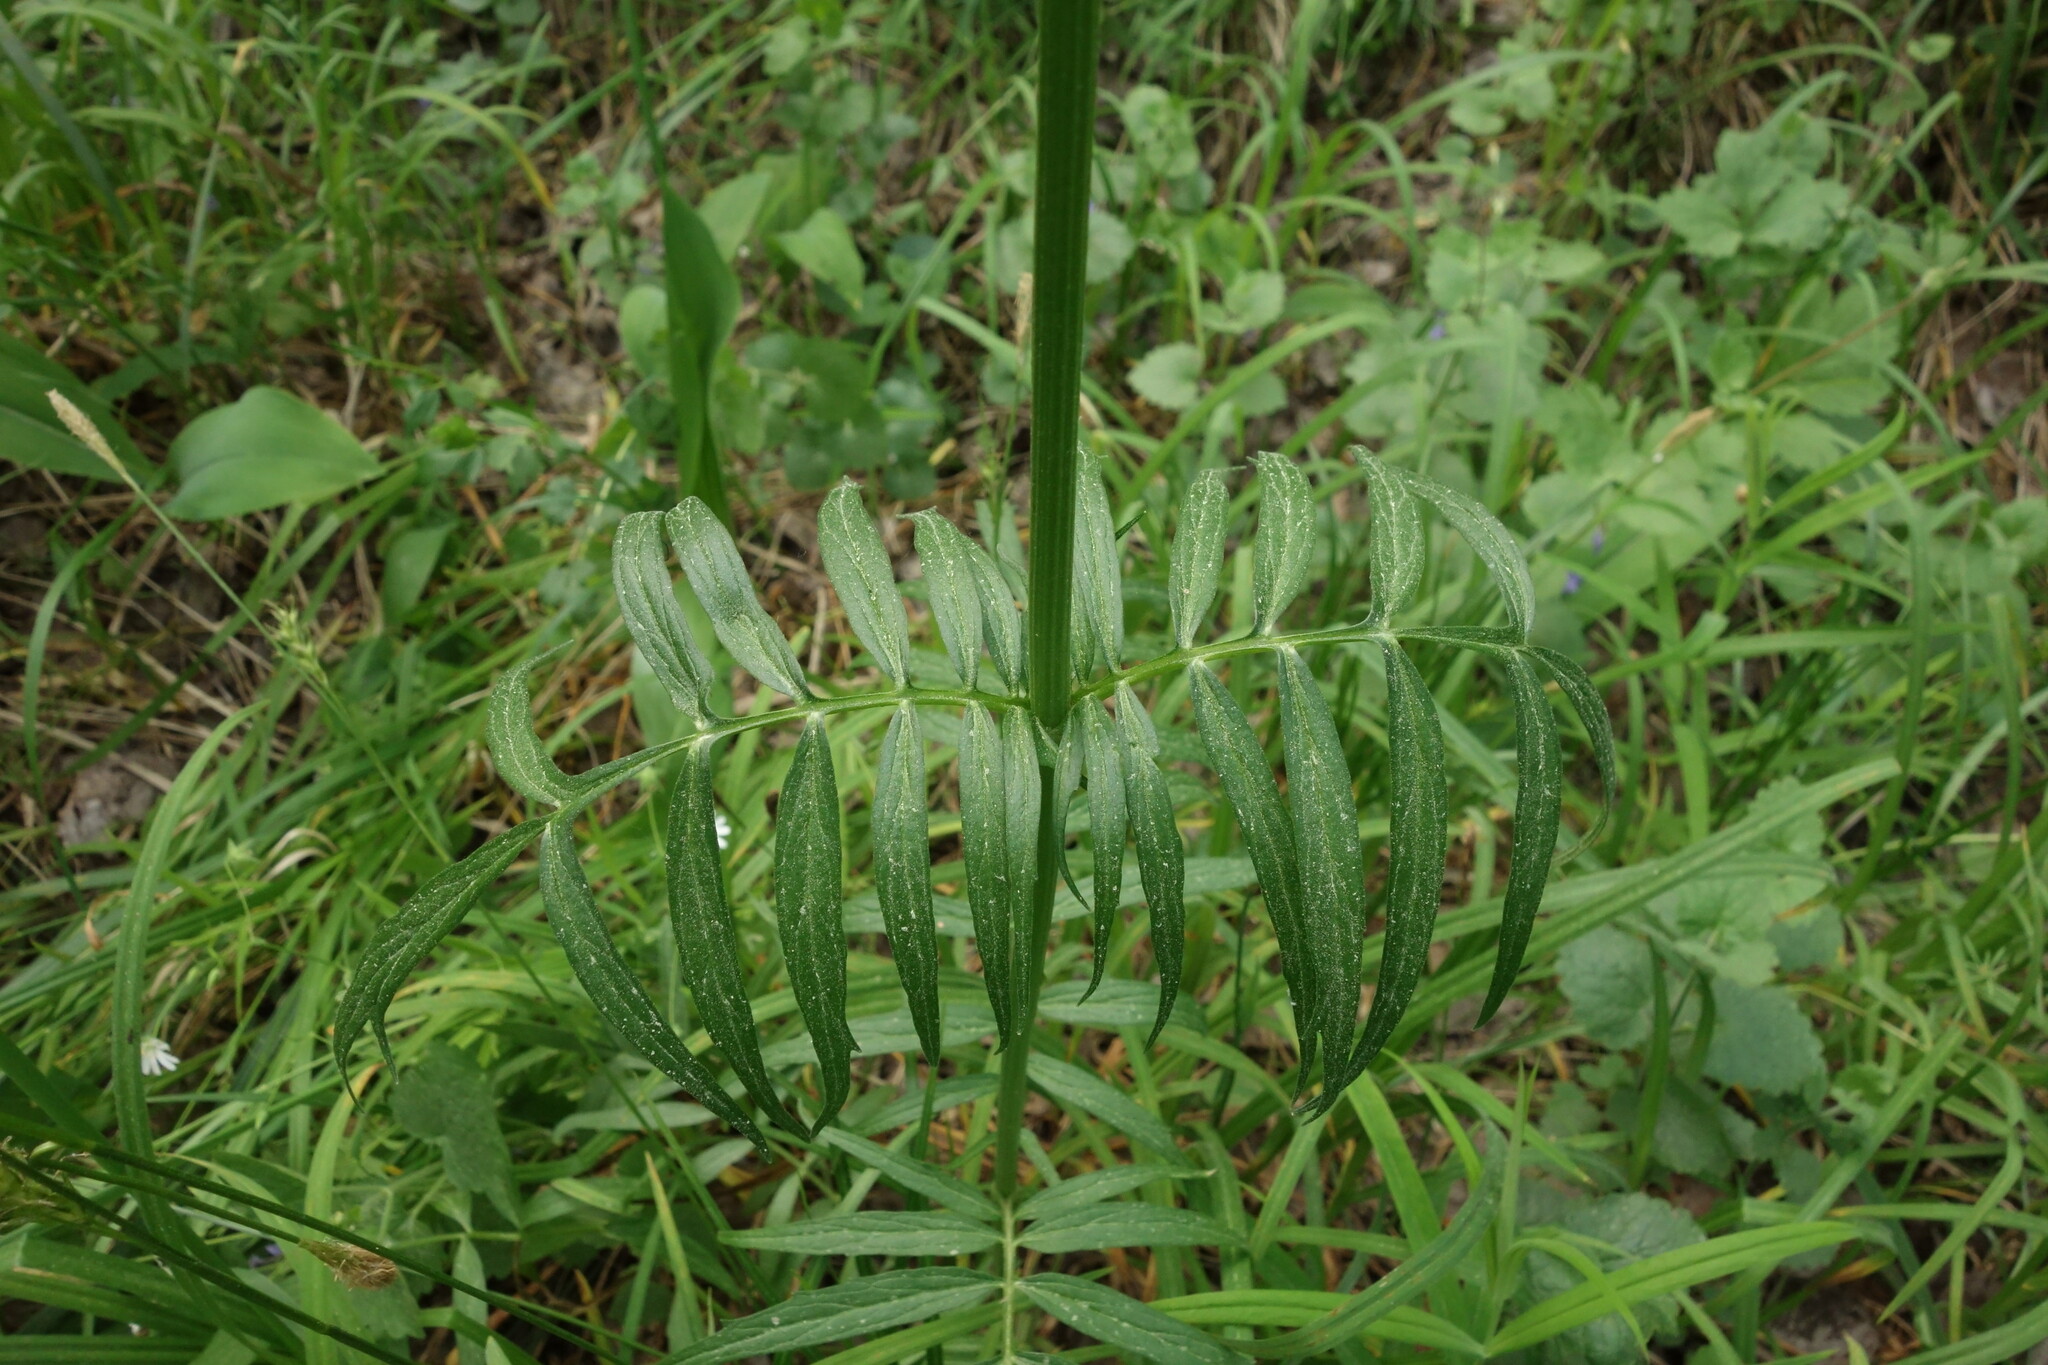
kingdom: Plantae
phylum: Tracheophyta
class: Magnoliopsida
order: Dipsacales
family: Caprifoliaceae
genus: Valeriana
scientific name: Valeriana officinalis
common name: Common valerian
